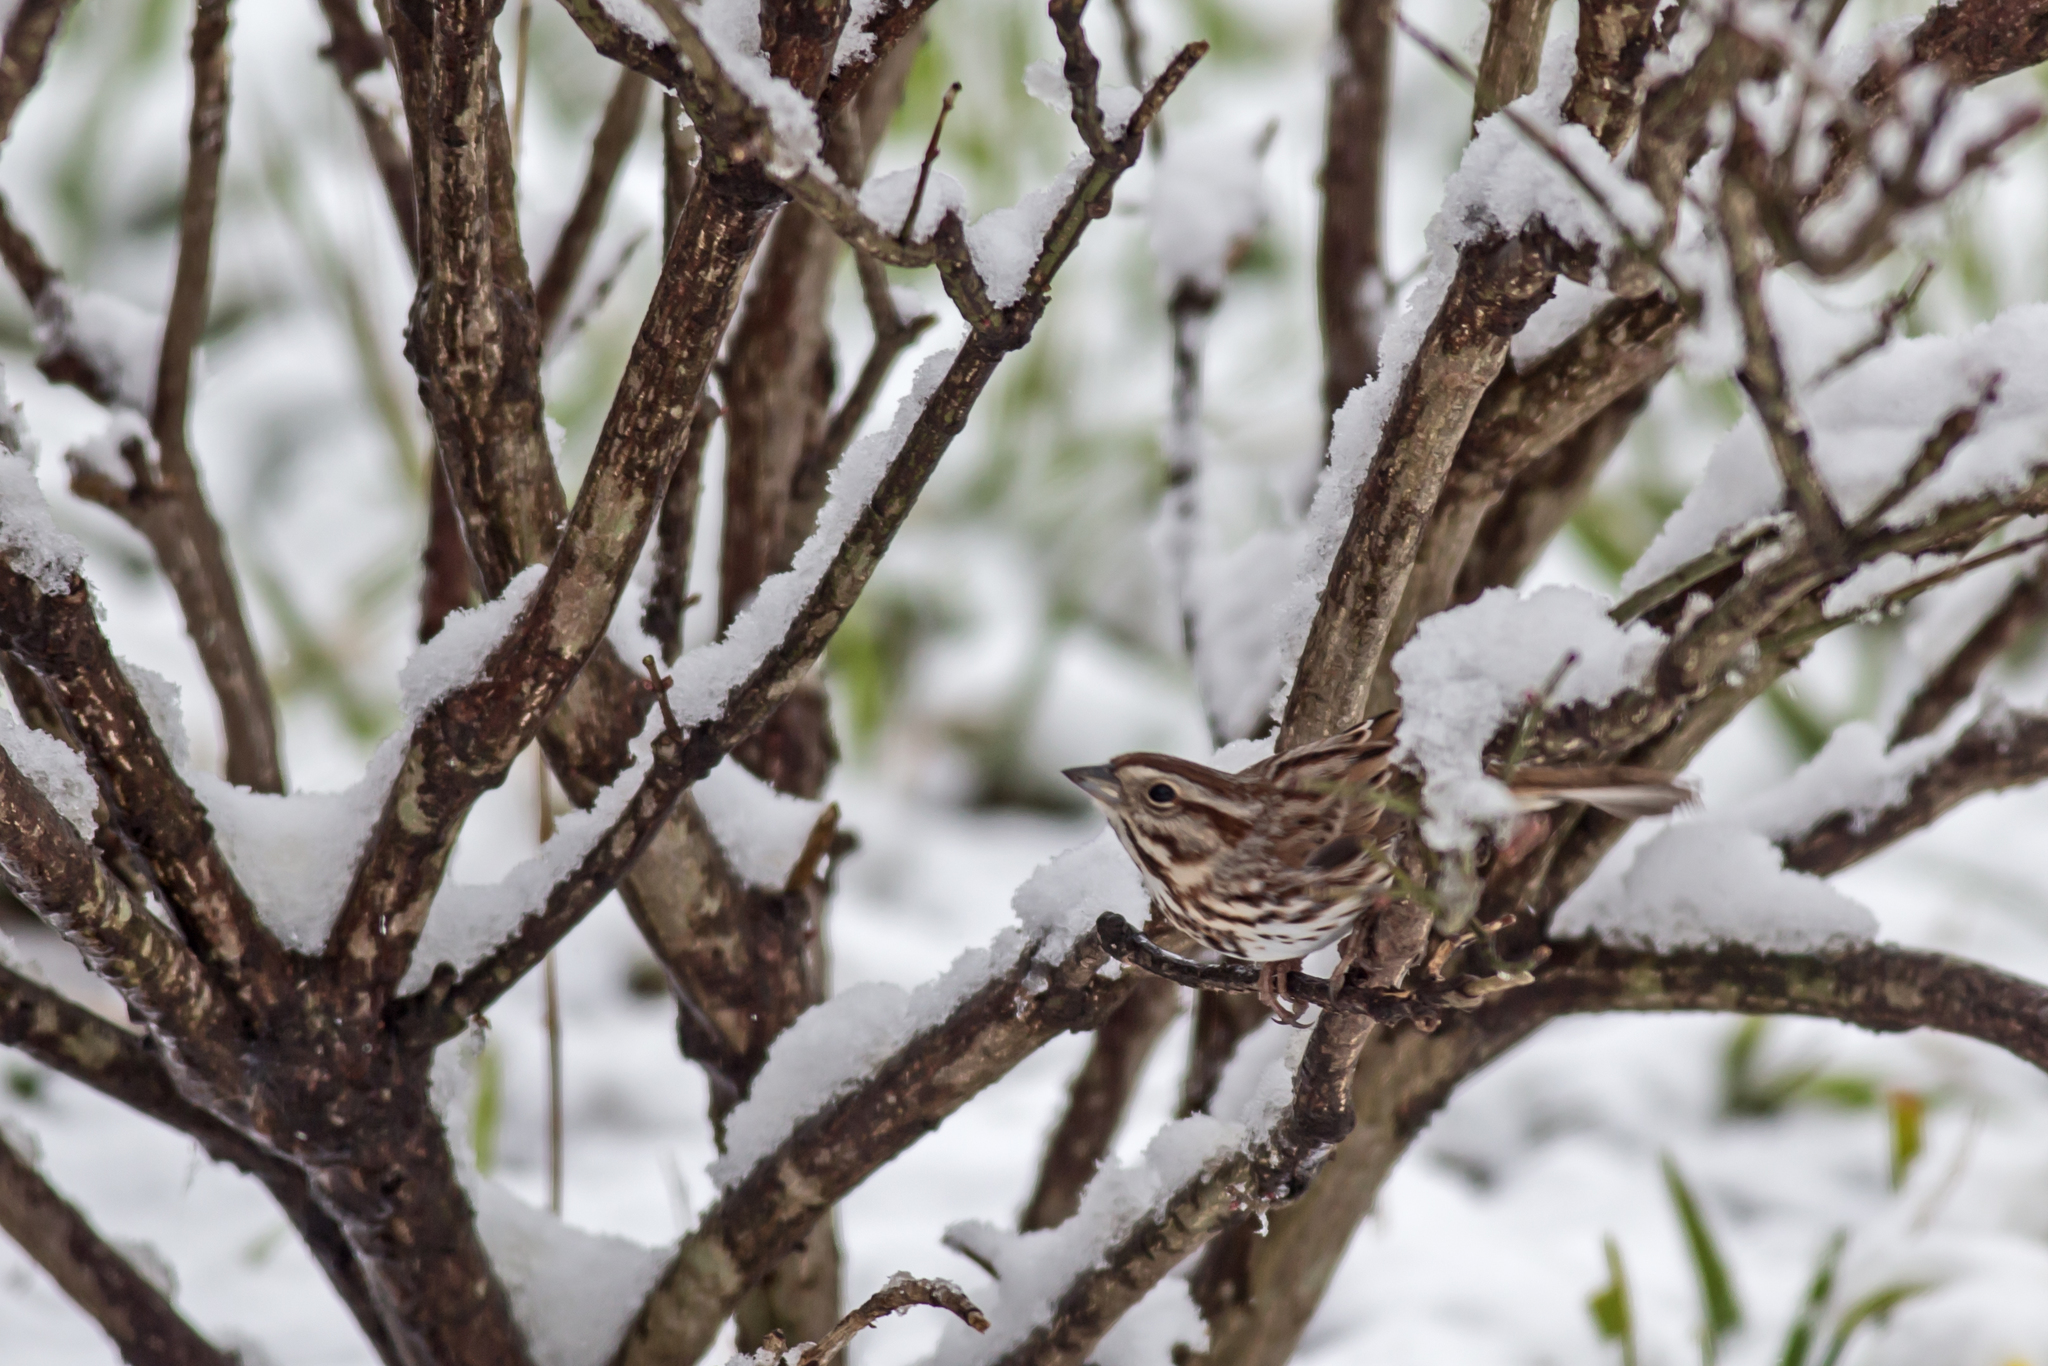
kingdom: Animalia
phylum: Chordata
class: Aves
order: Passeriformes
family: Passerellidae
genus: Melospiza
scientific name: Melospiza melodia
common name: Song sparrow
